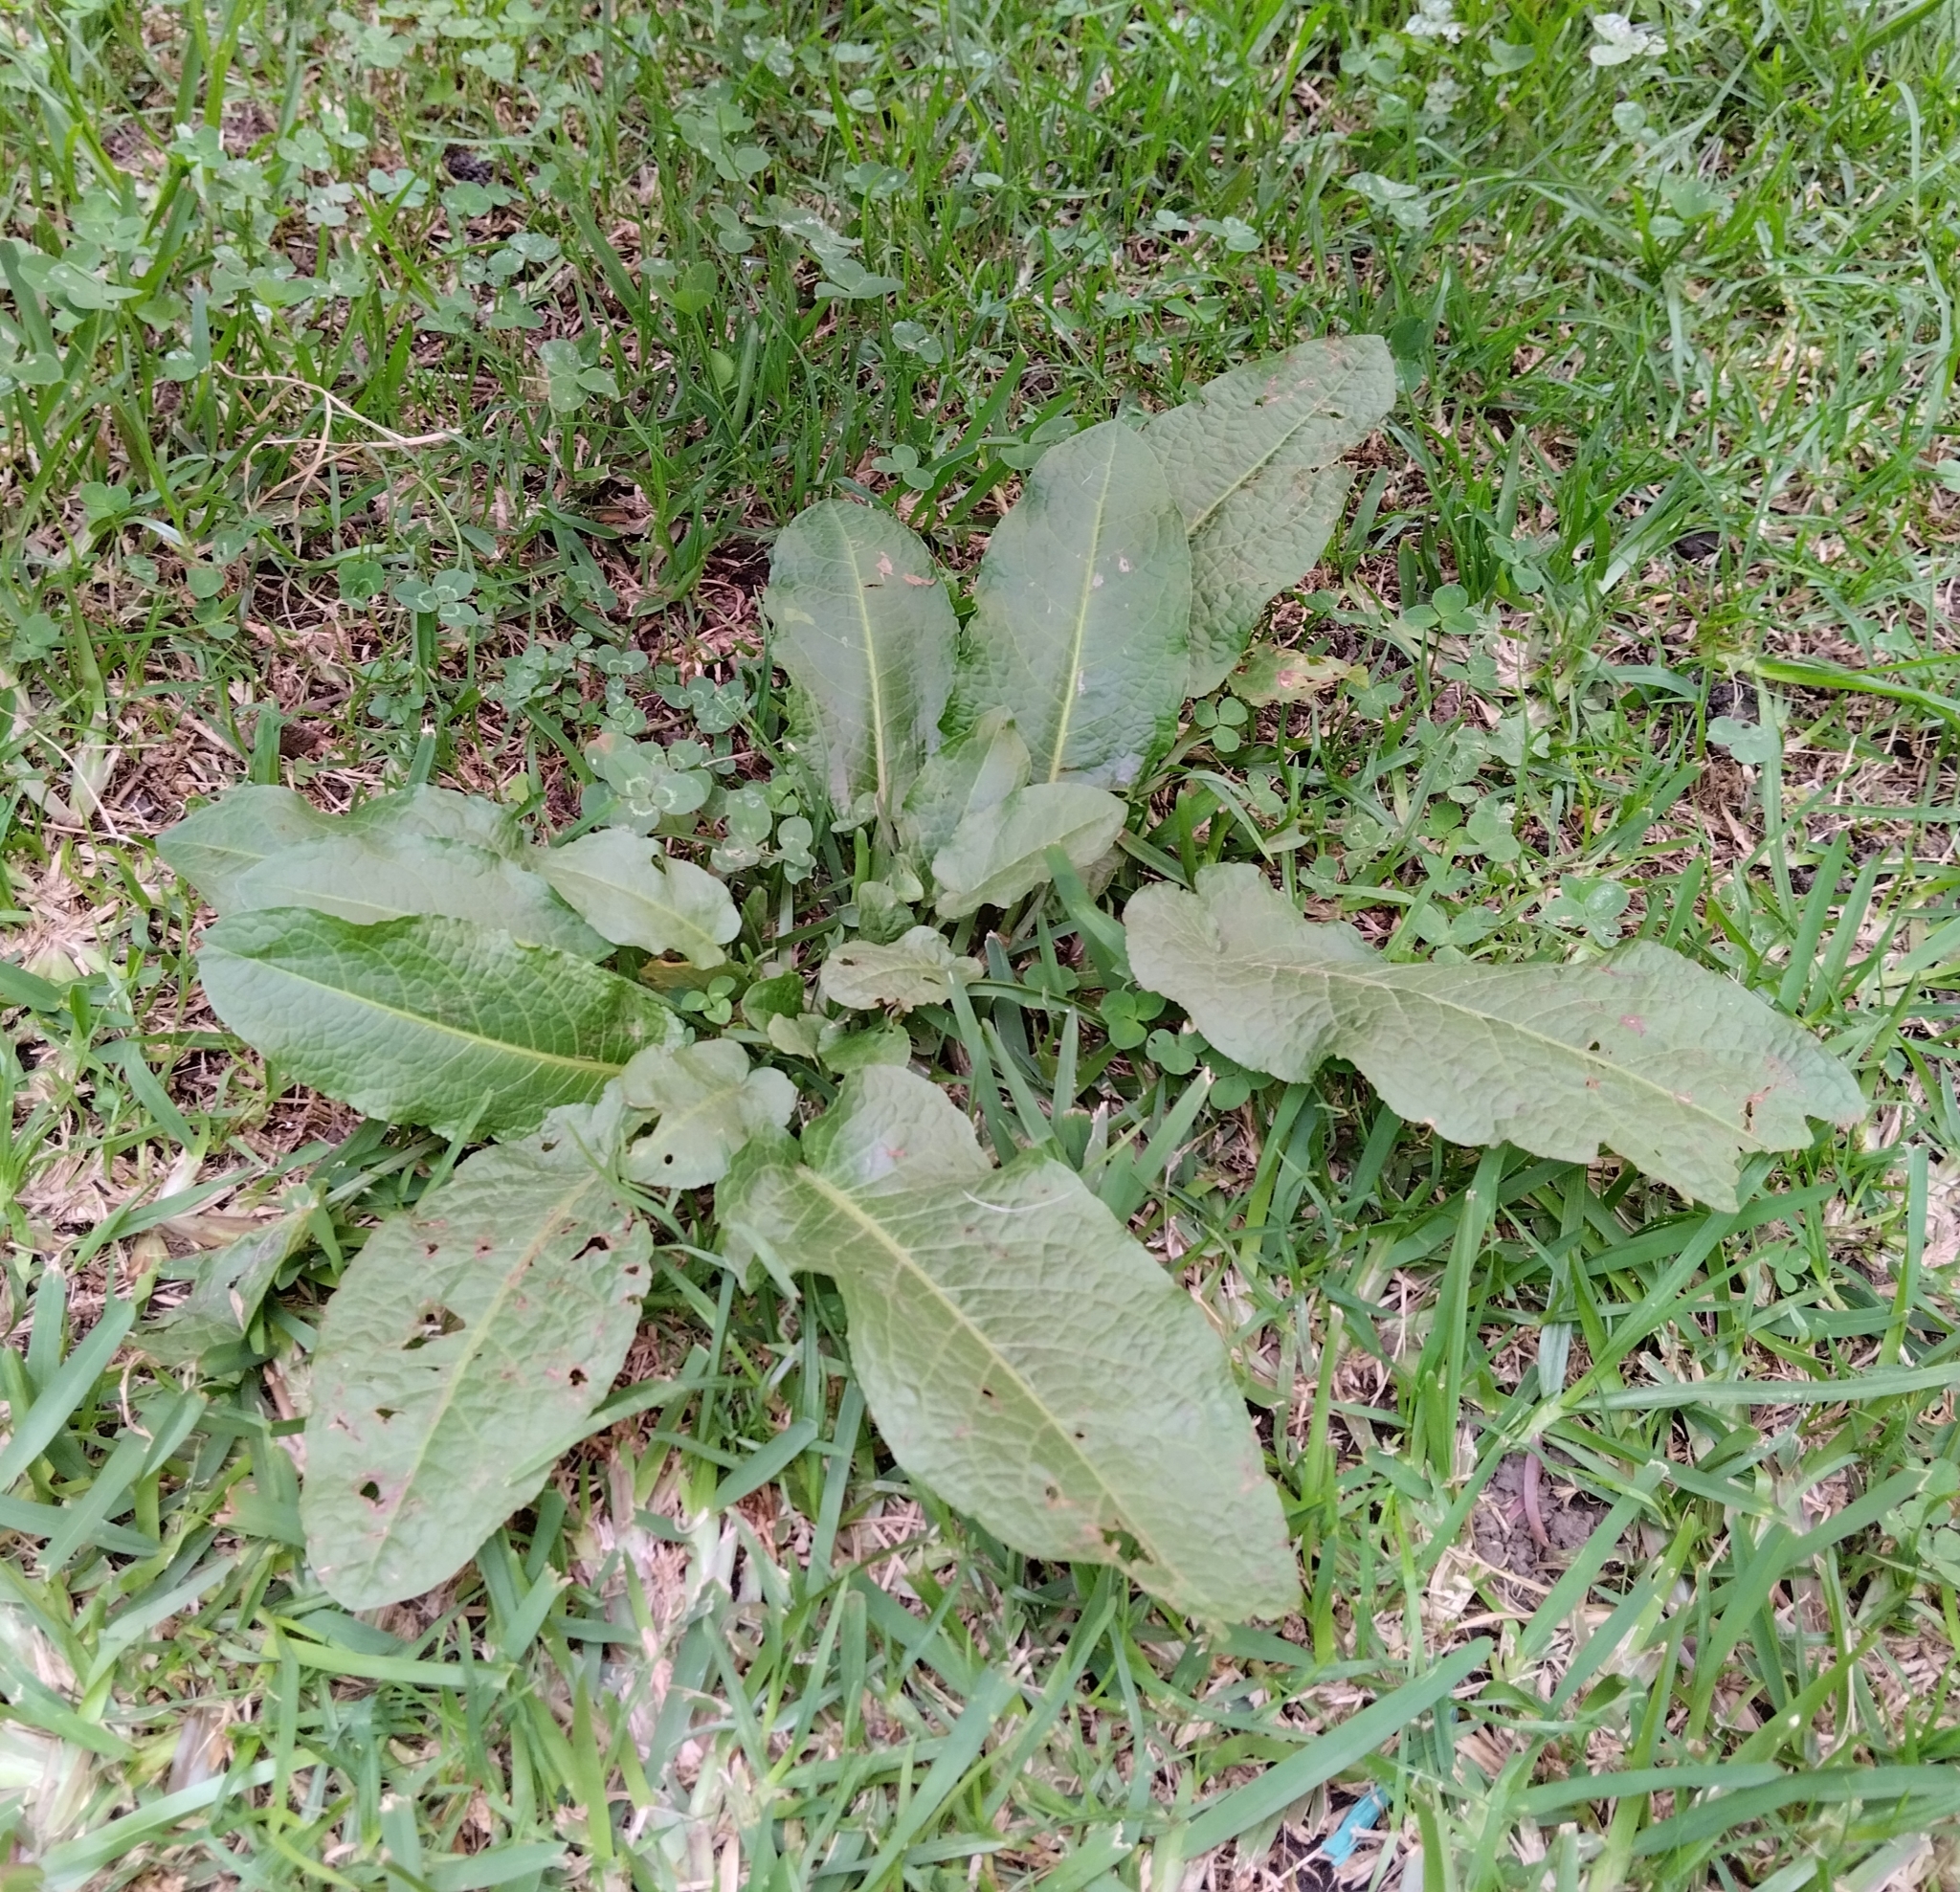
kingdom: Plantae
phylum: Tracheophyta
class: Magnoliopsida
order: Caryophyllales
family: Polygonaceae
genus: Rumex
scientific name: Rumex obtusifolius
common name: Bitter dock
